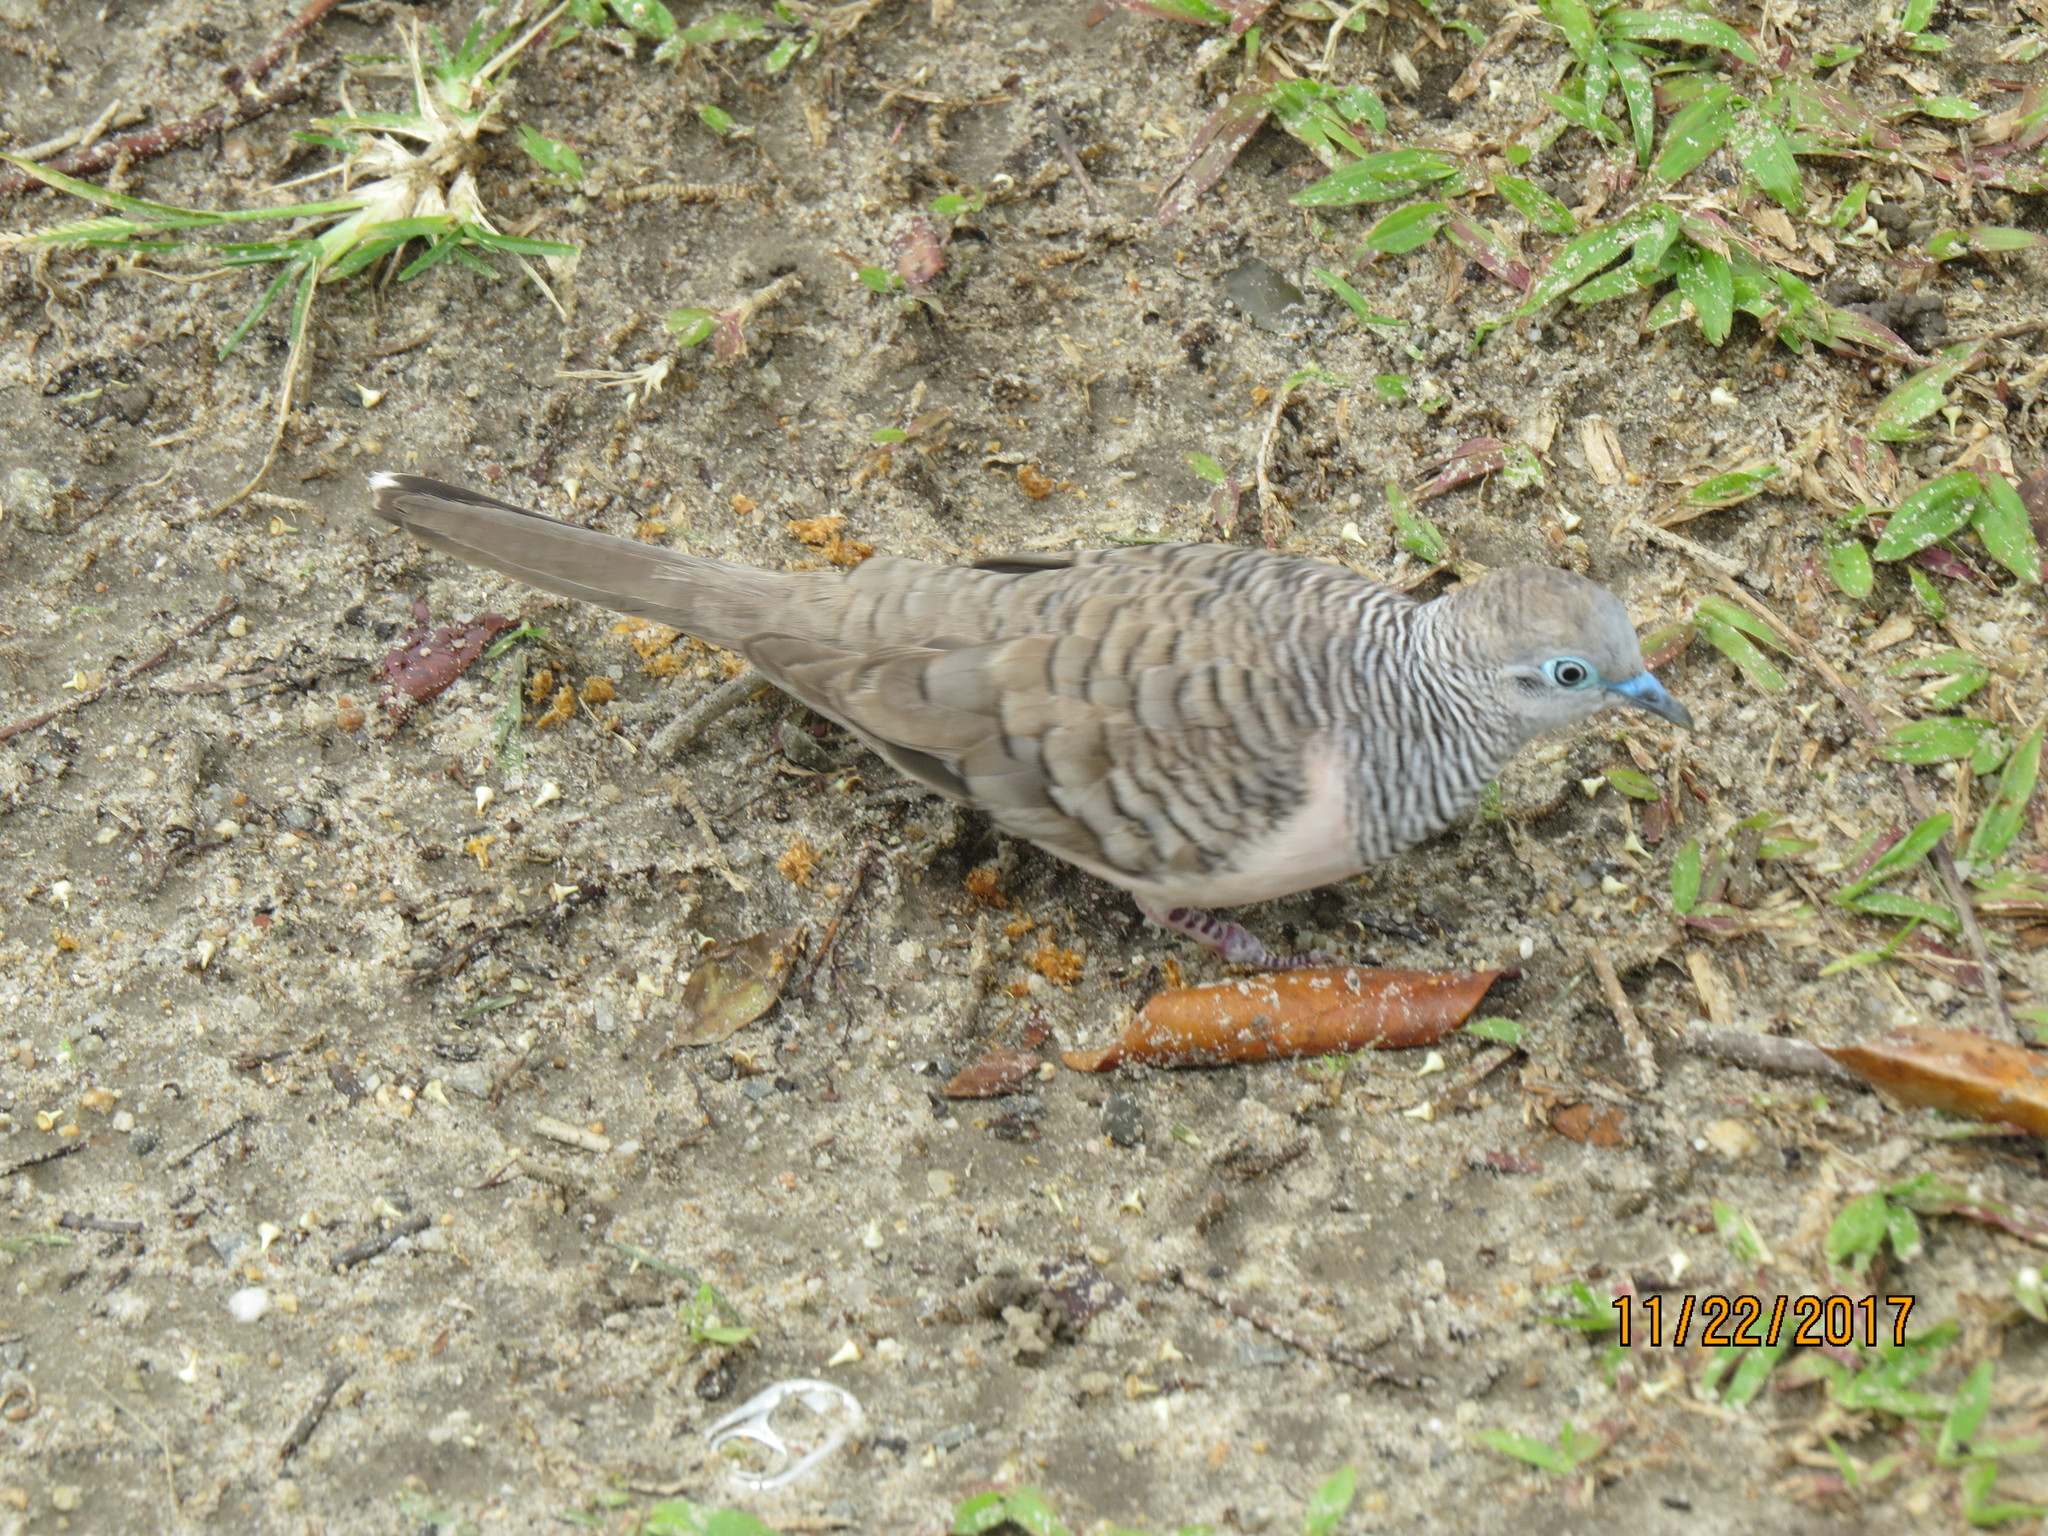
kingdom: Animalia
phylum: Chordata
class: Aves
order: Columbiformes
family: Columbidae
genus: Geopelia
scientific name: Geopelia placida
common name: Peaceful dove
